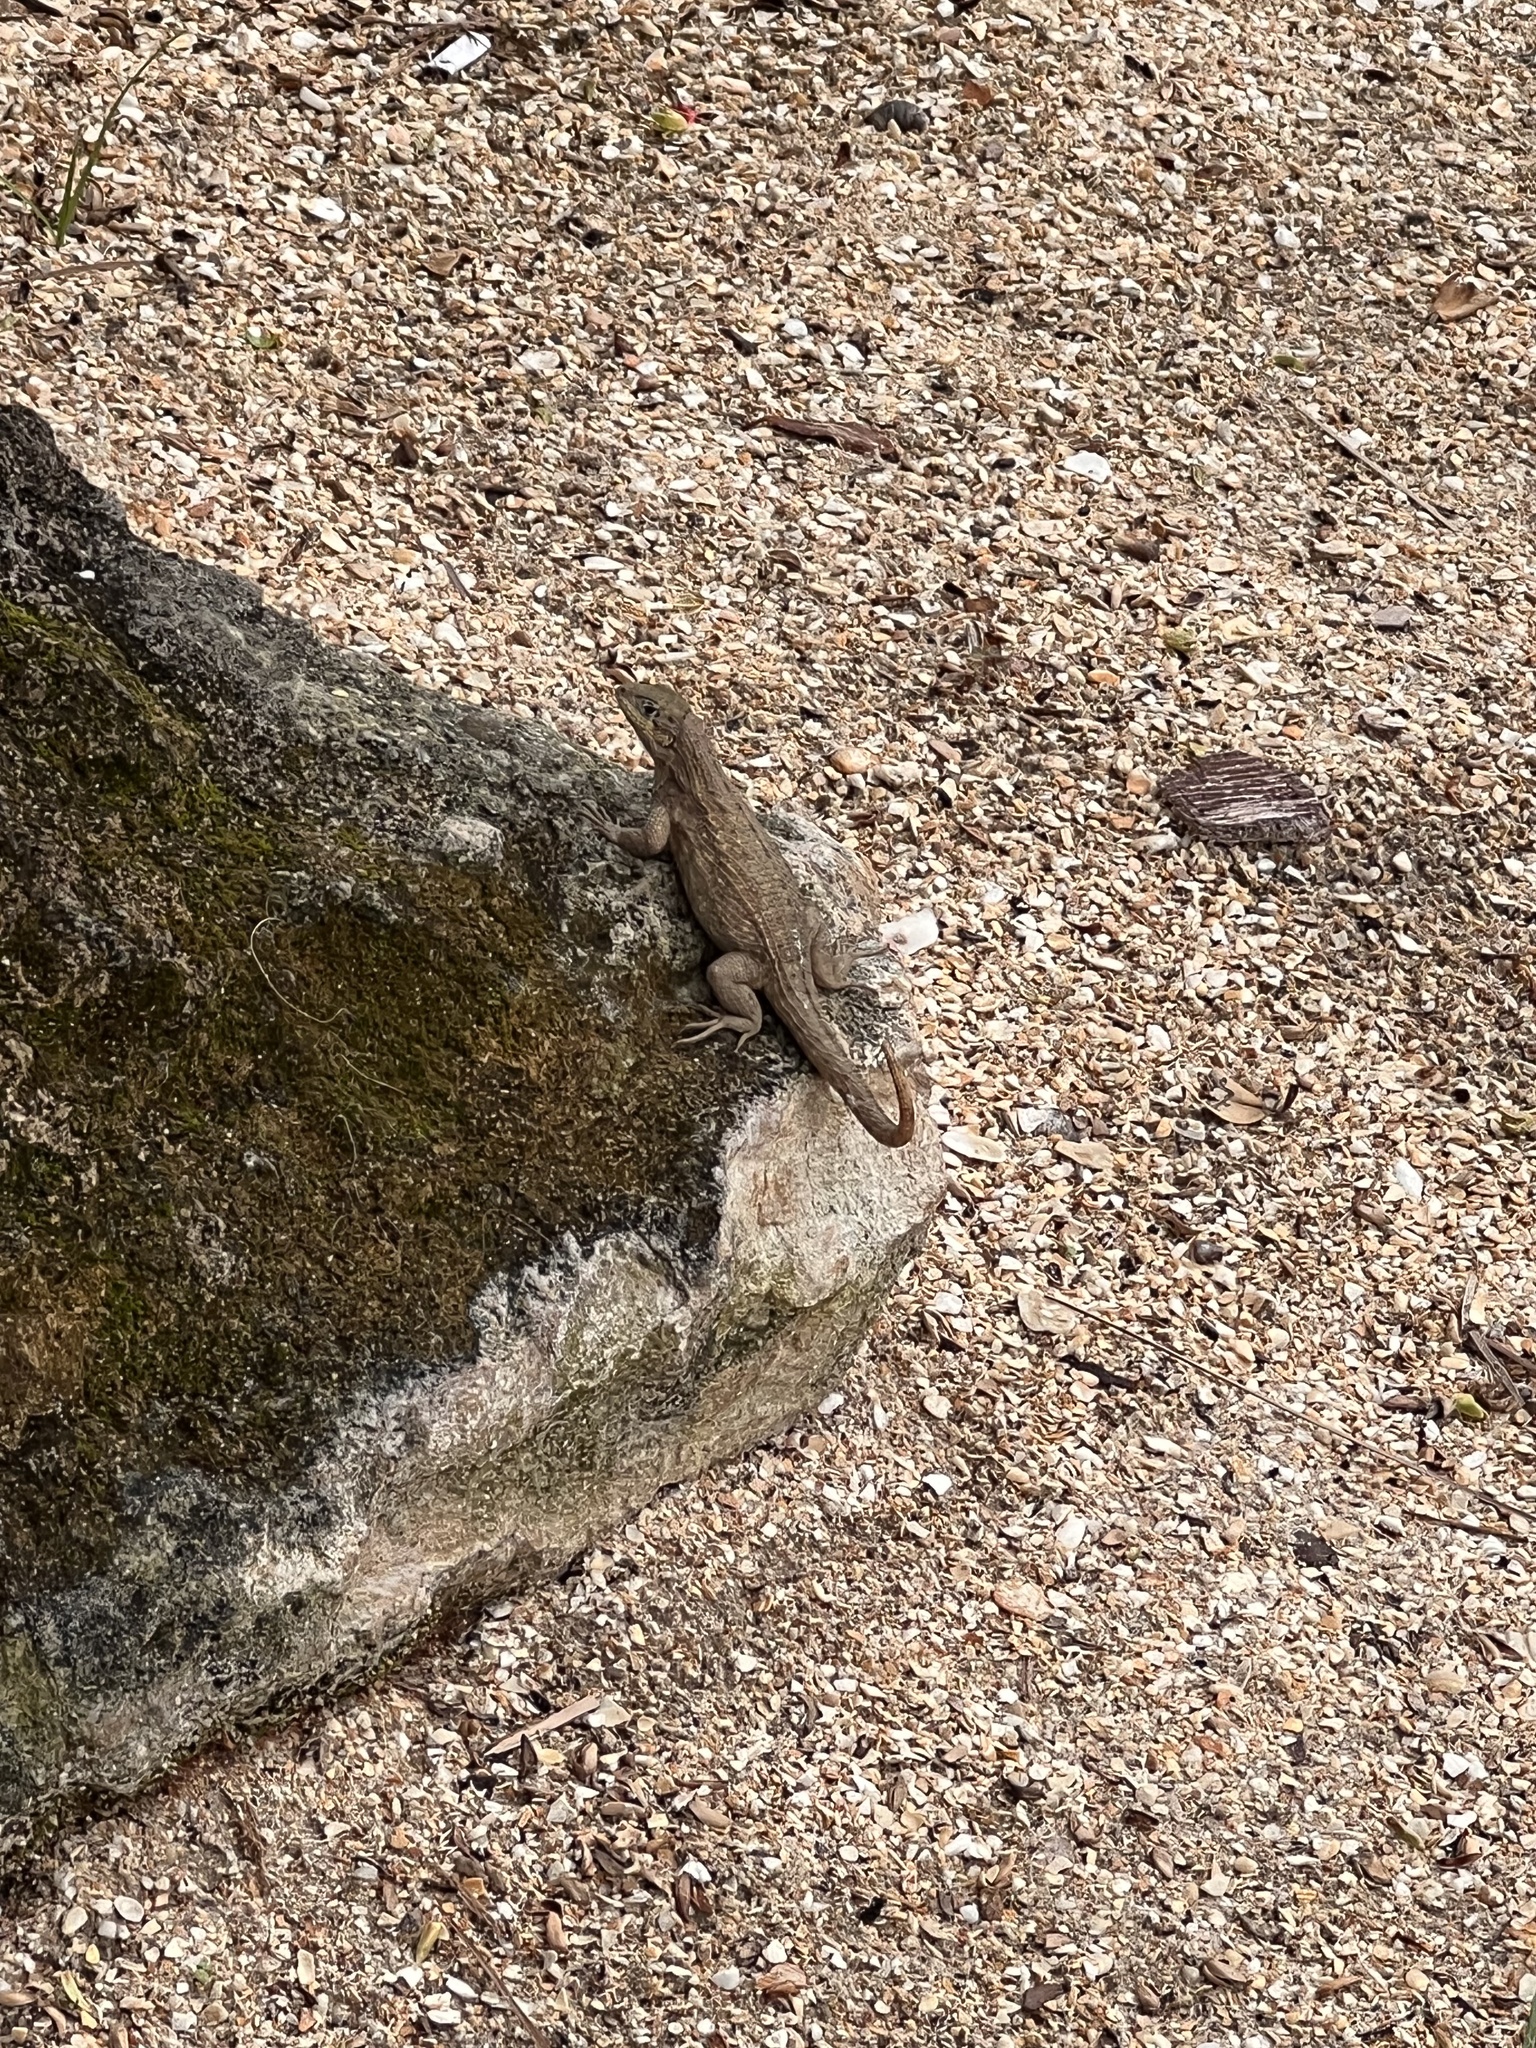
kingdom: Animalia
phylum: Chordata
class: Squamata
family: Leiocephalidae
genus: Leiocephalus
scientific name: Leiocephalus carinatus
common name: Northern curly-tailed lizard
